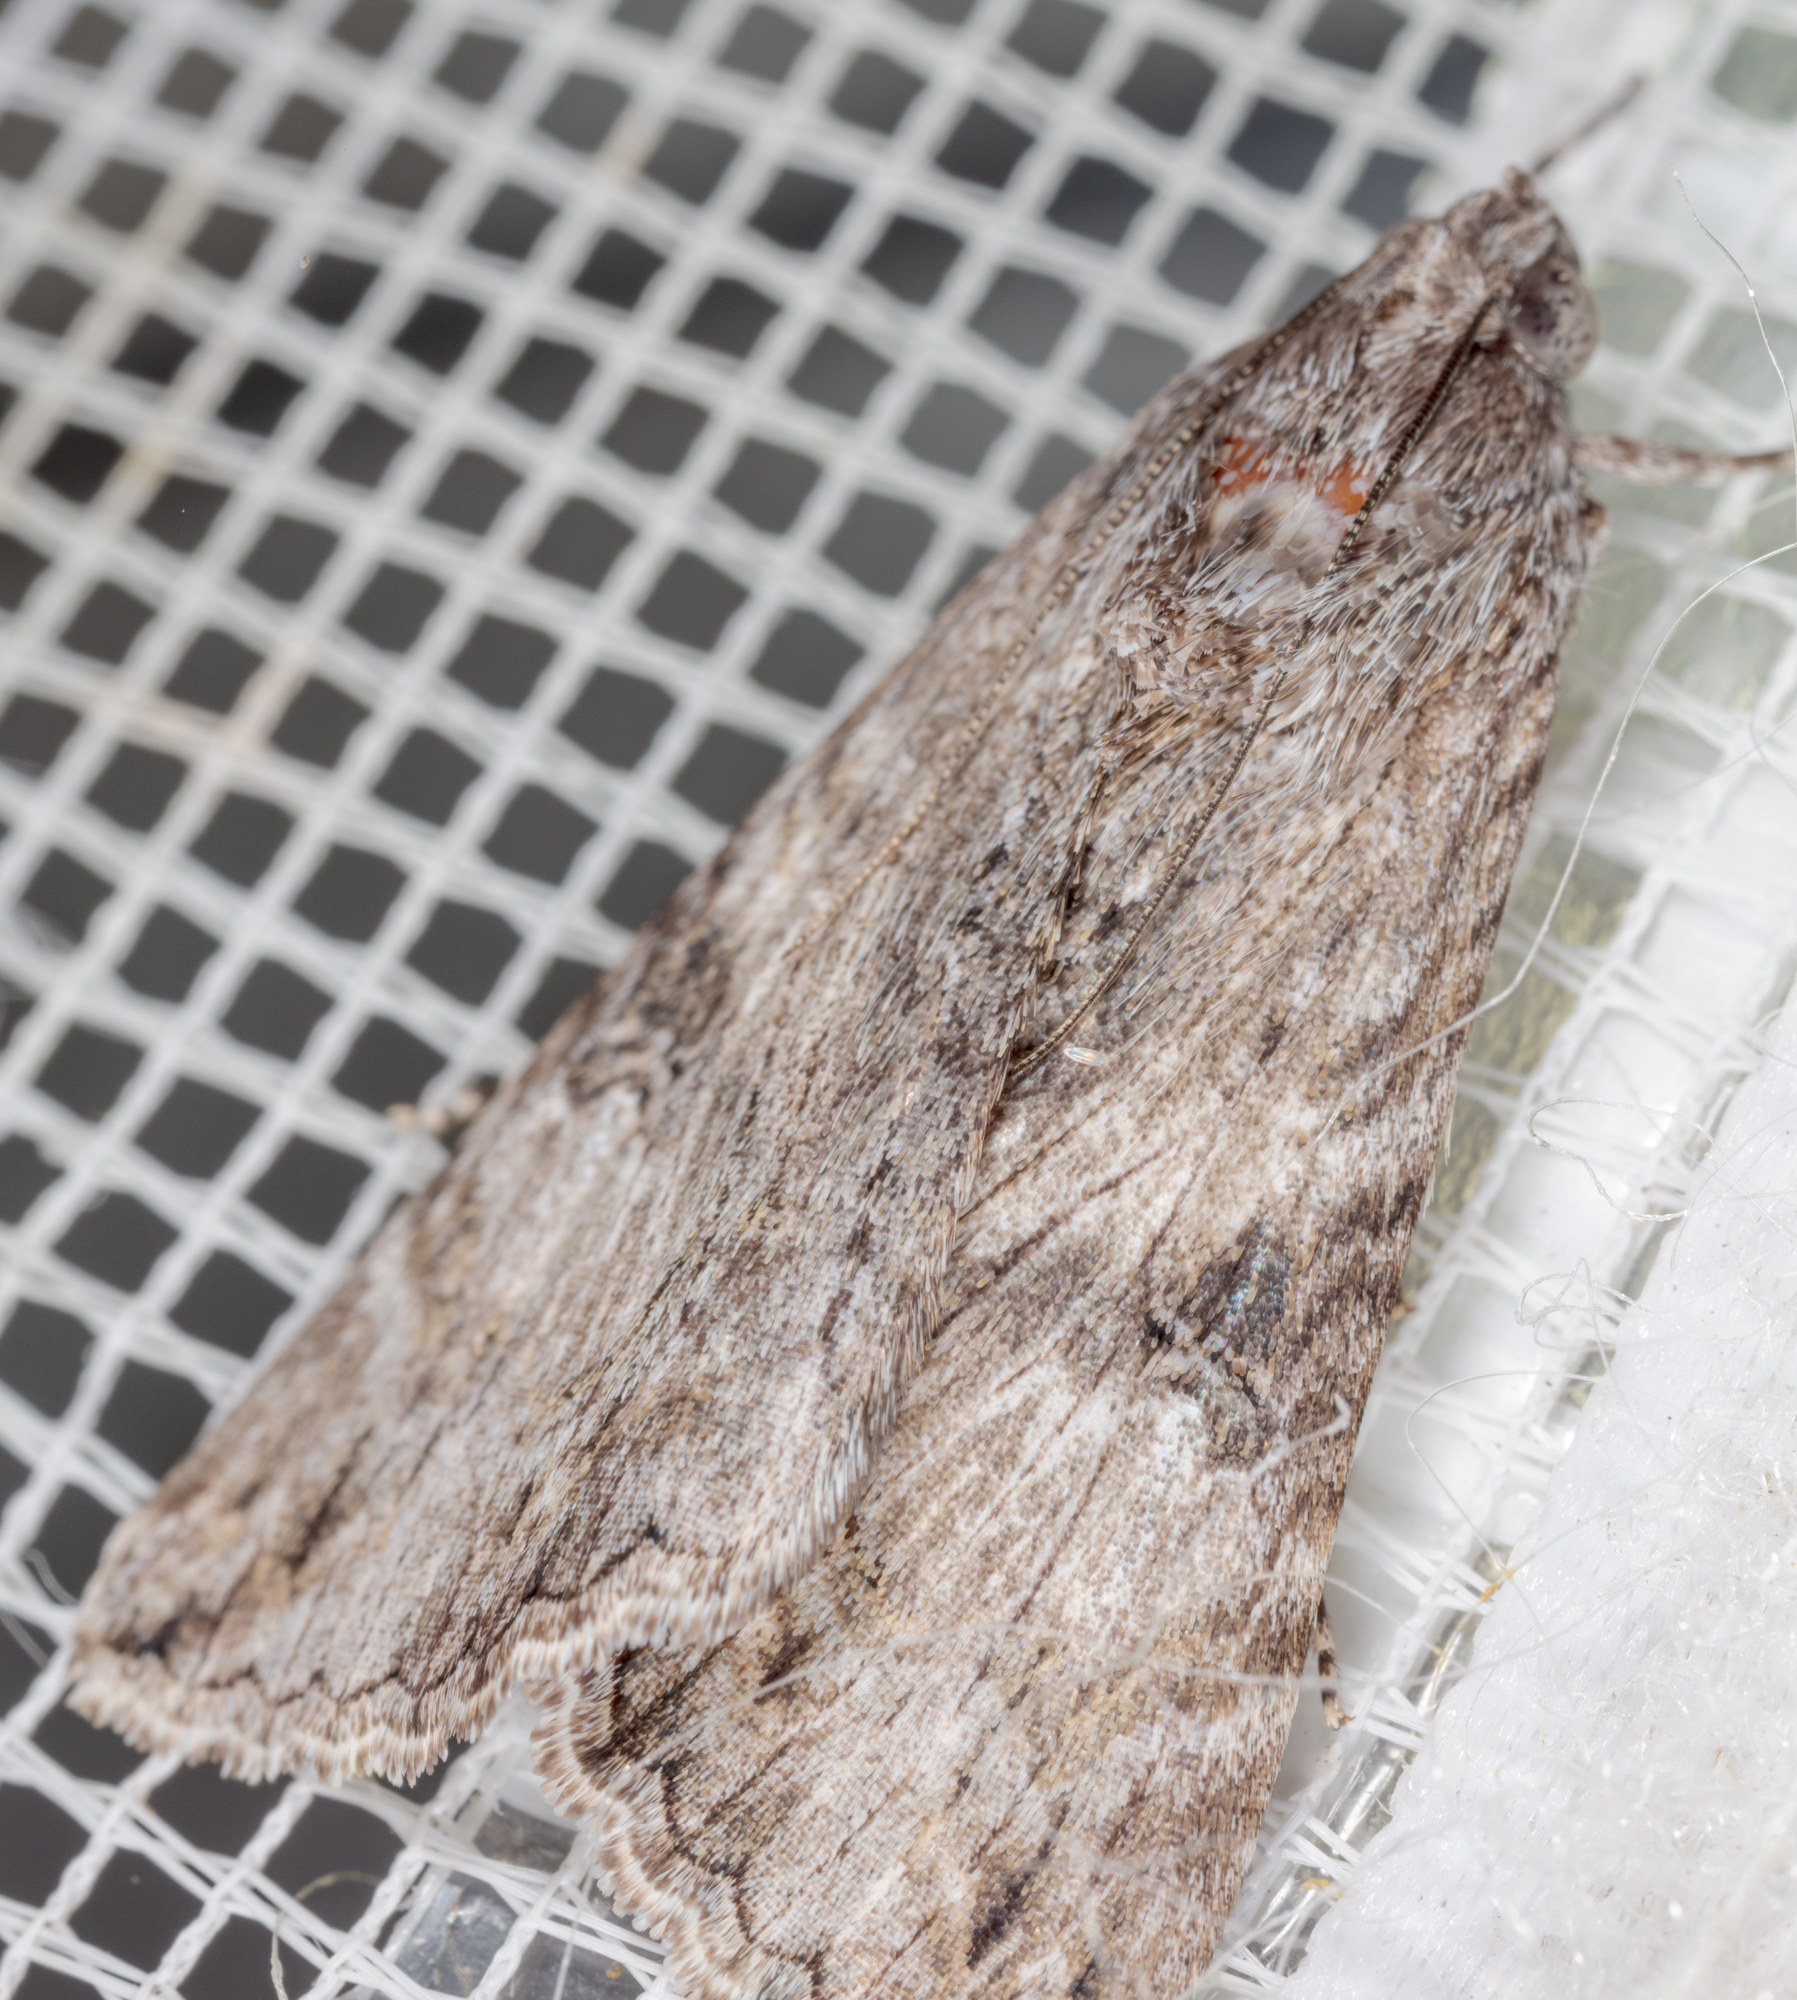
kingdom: Animalia
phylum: Arthropoda
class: Insecta
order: Lepidoptera
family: Erebidae
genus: Melipotis
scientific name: Melipotis jucunda
